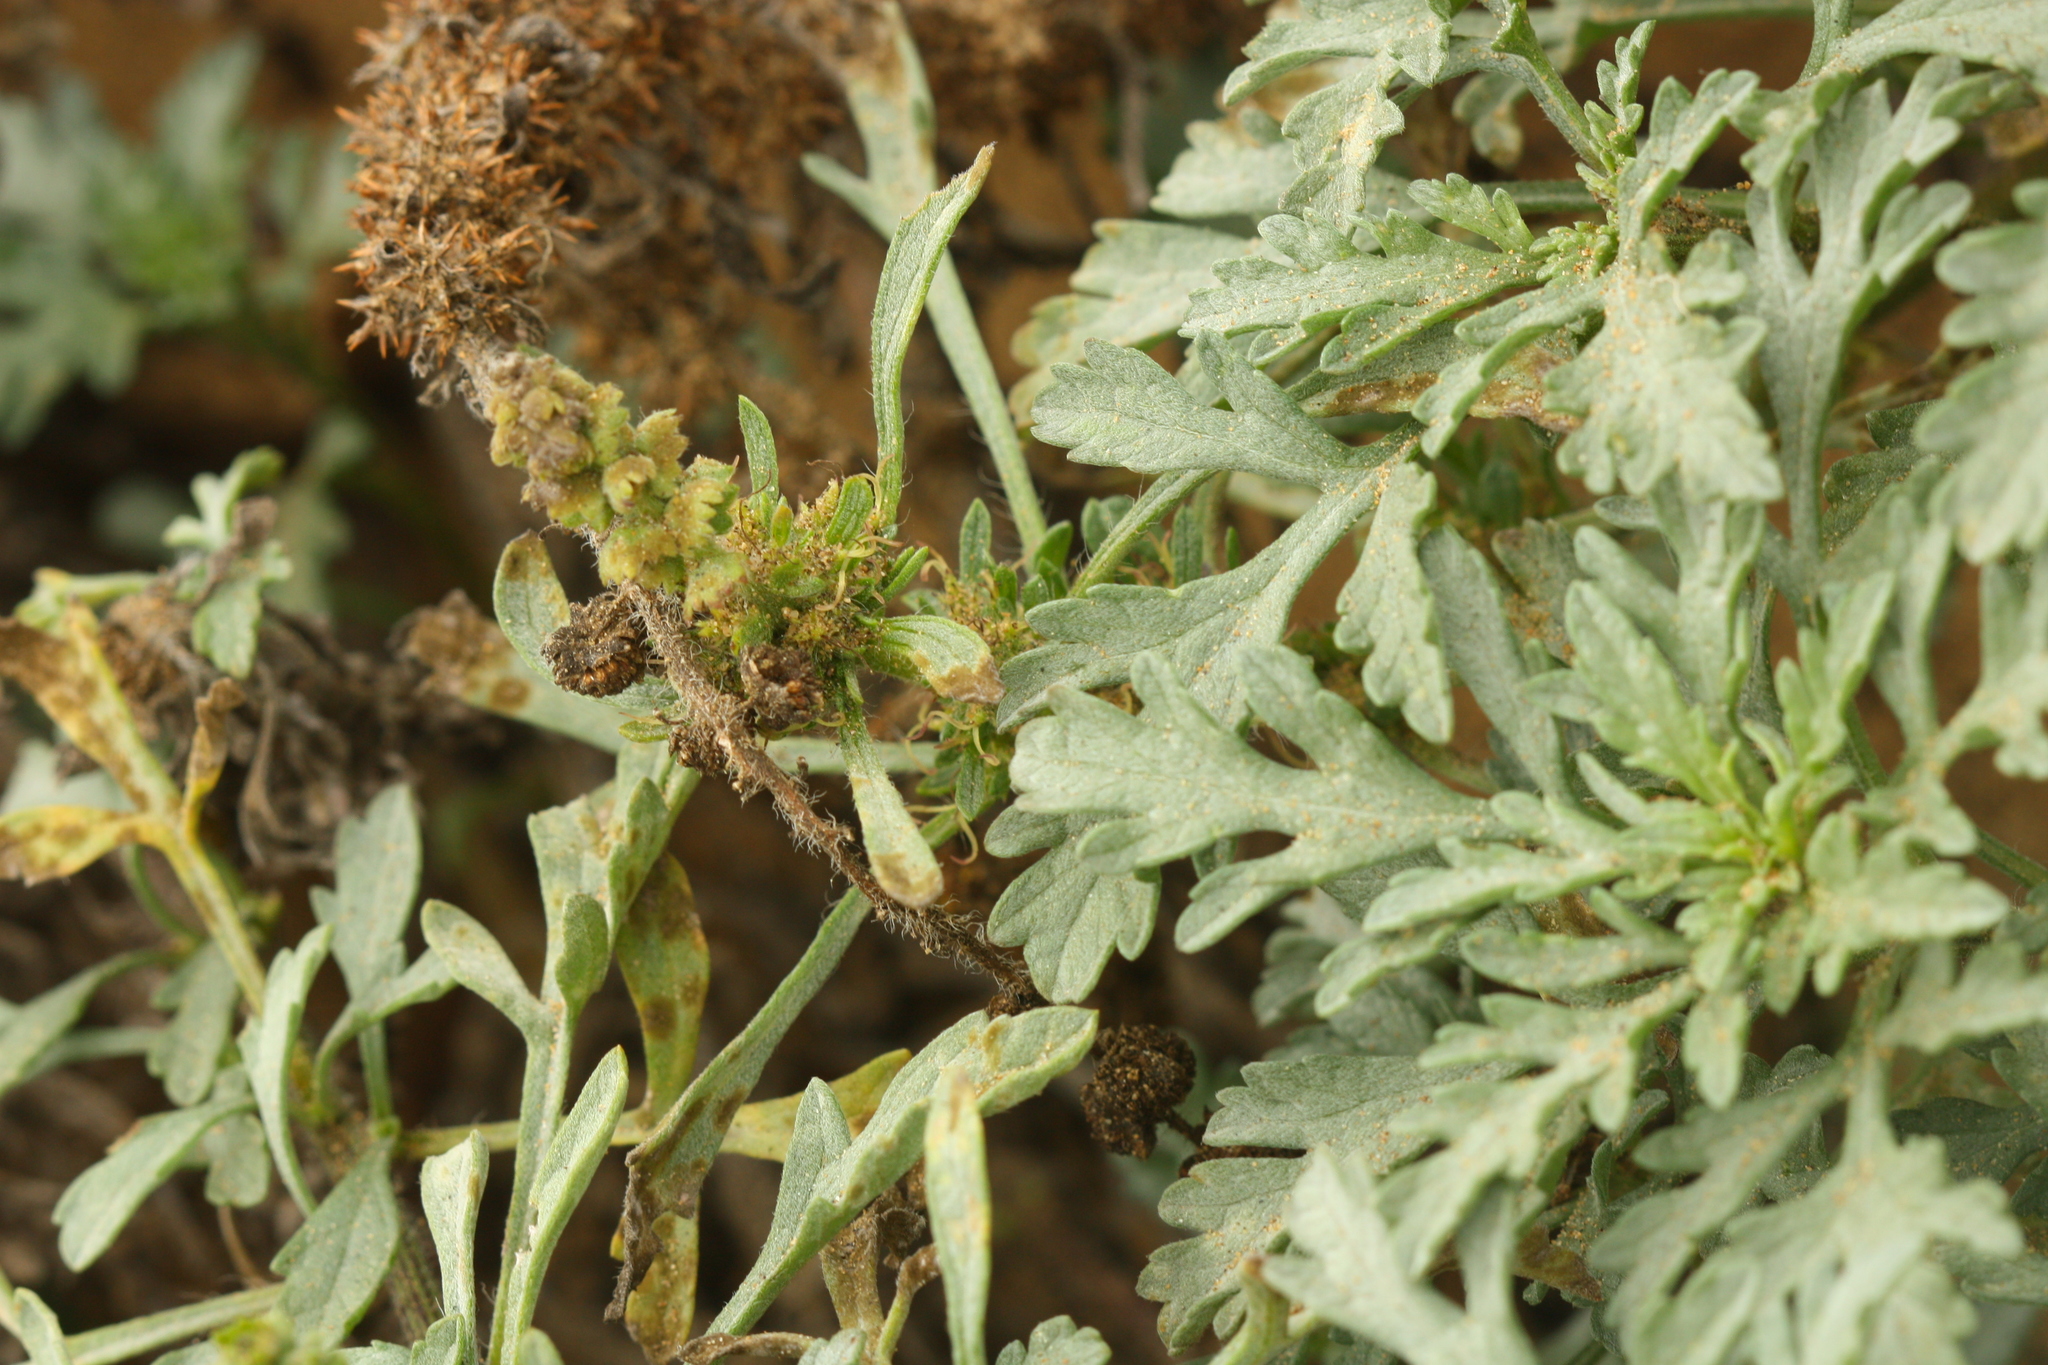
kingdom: Plantae
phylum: Tracheophyta
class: Magnoliopsida
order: Asterales
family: Asteraceae
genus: Ambrosia
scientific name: Ambrosia chamissonis
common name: Beachbur
